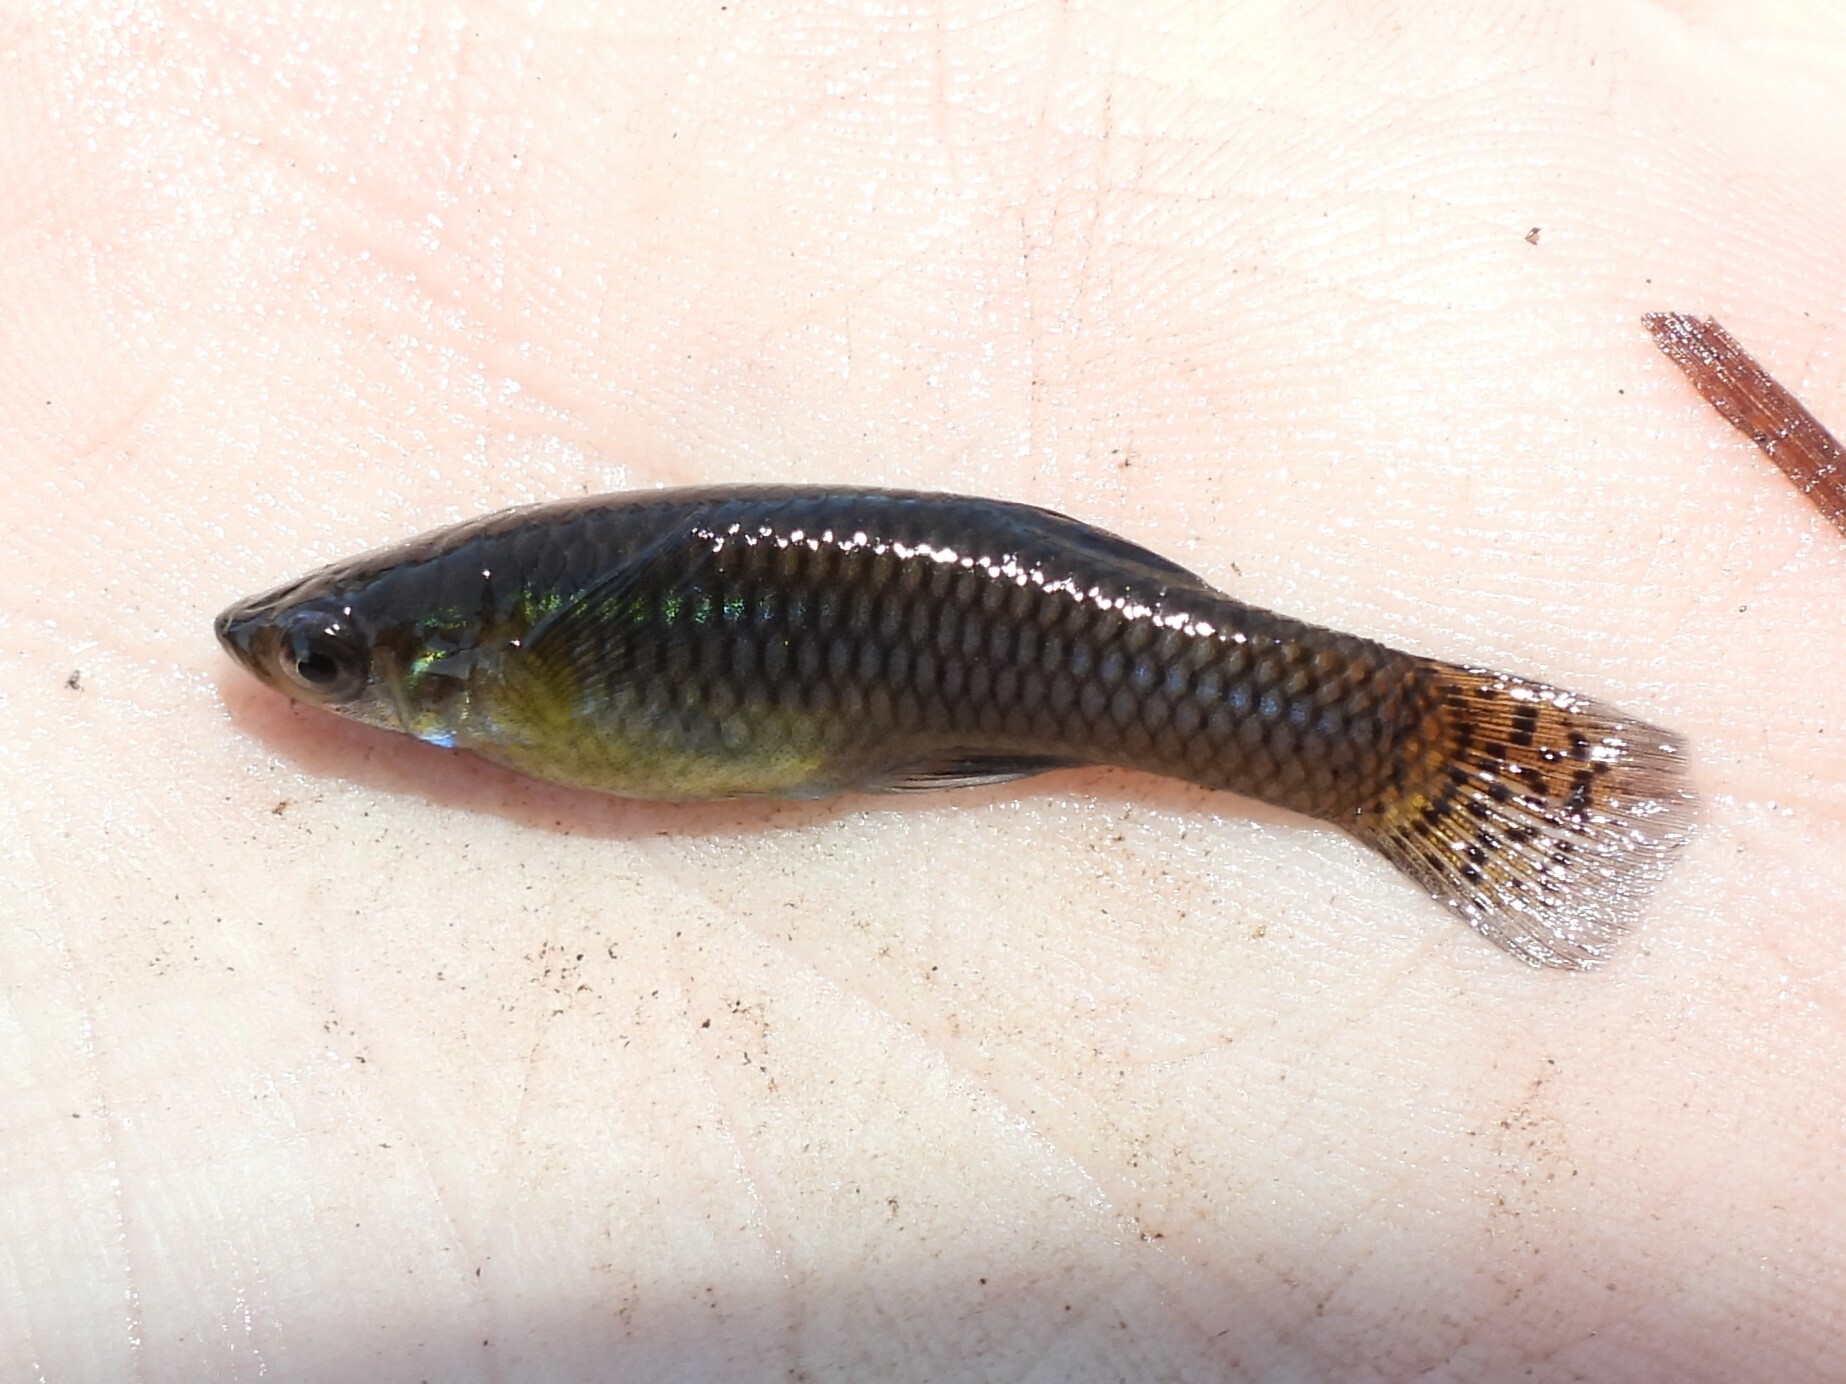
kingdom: Animalia
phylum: Chordata
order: Cyprinodontiformes
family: Poeciliidae
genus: Gambusia
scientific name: Gambusia holbrooki
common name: Eastern mosquitofish
